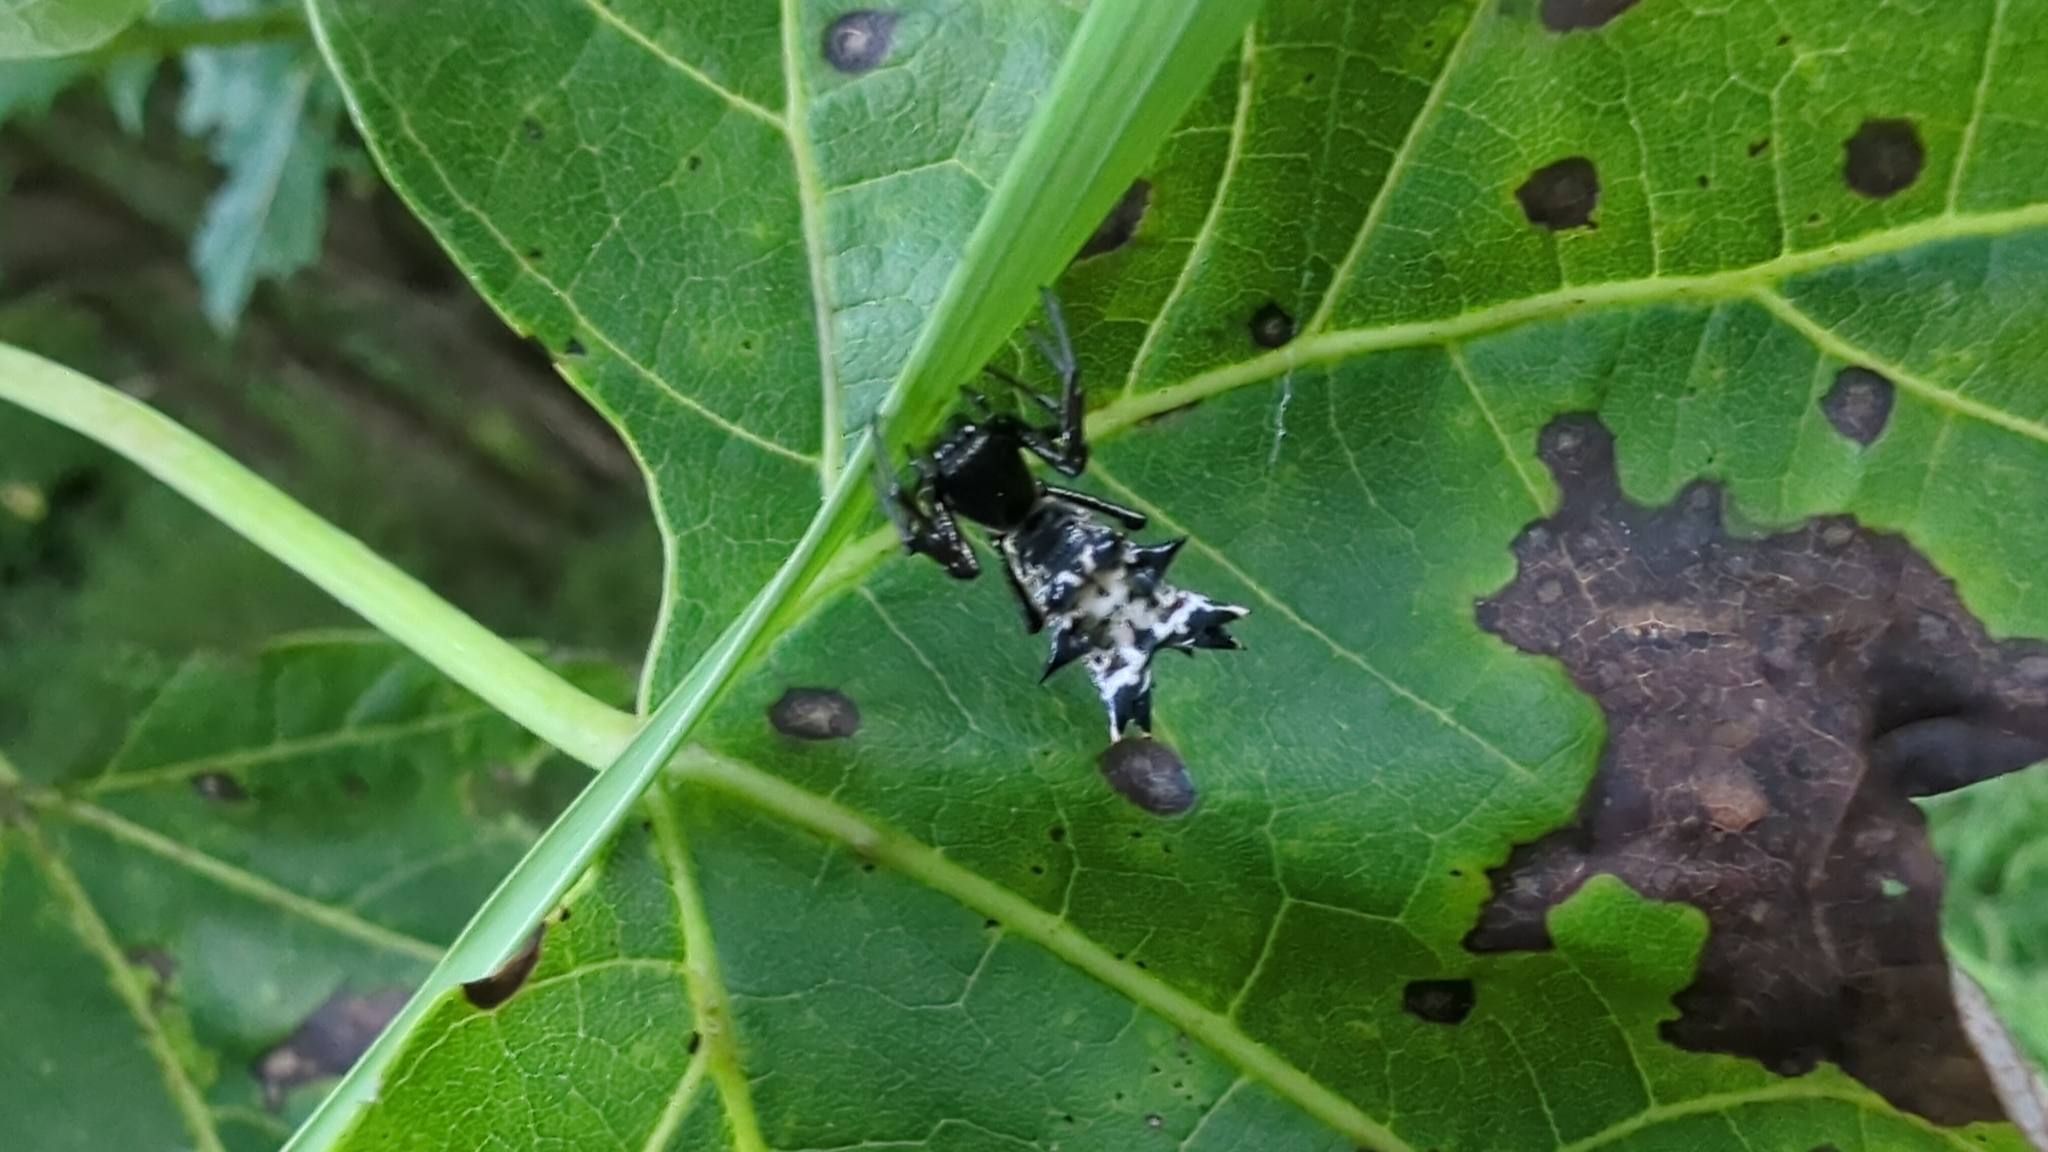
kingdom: Animalia
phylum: Arthropoda
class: Arachnida
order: Araneae
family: Araneidae
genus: Micrathena
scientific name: Micrathena gracilis
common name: Orb weavers
